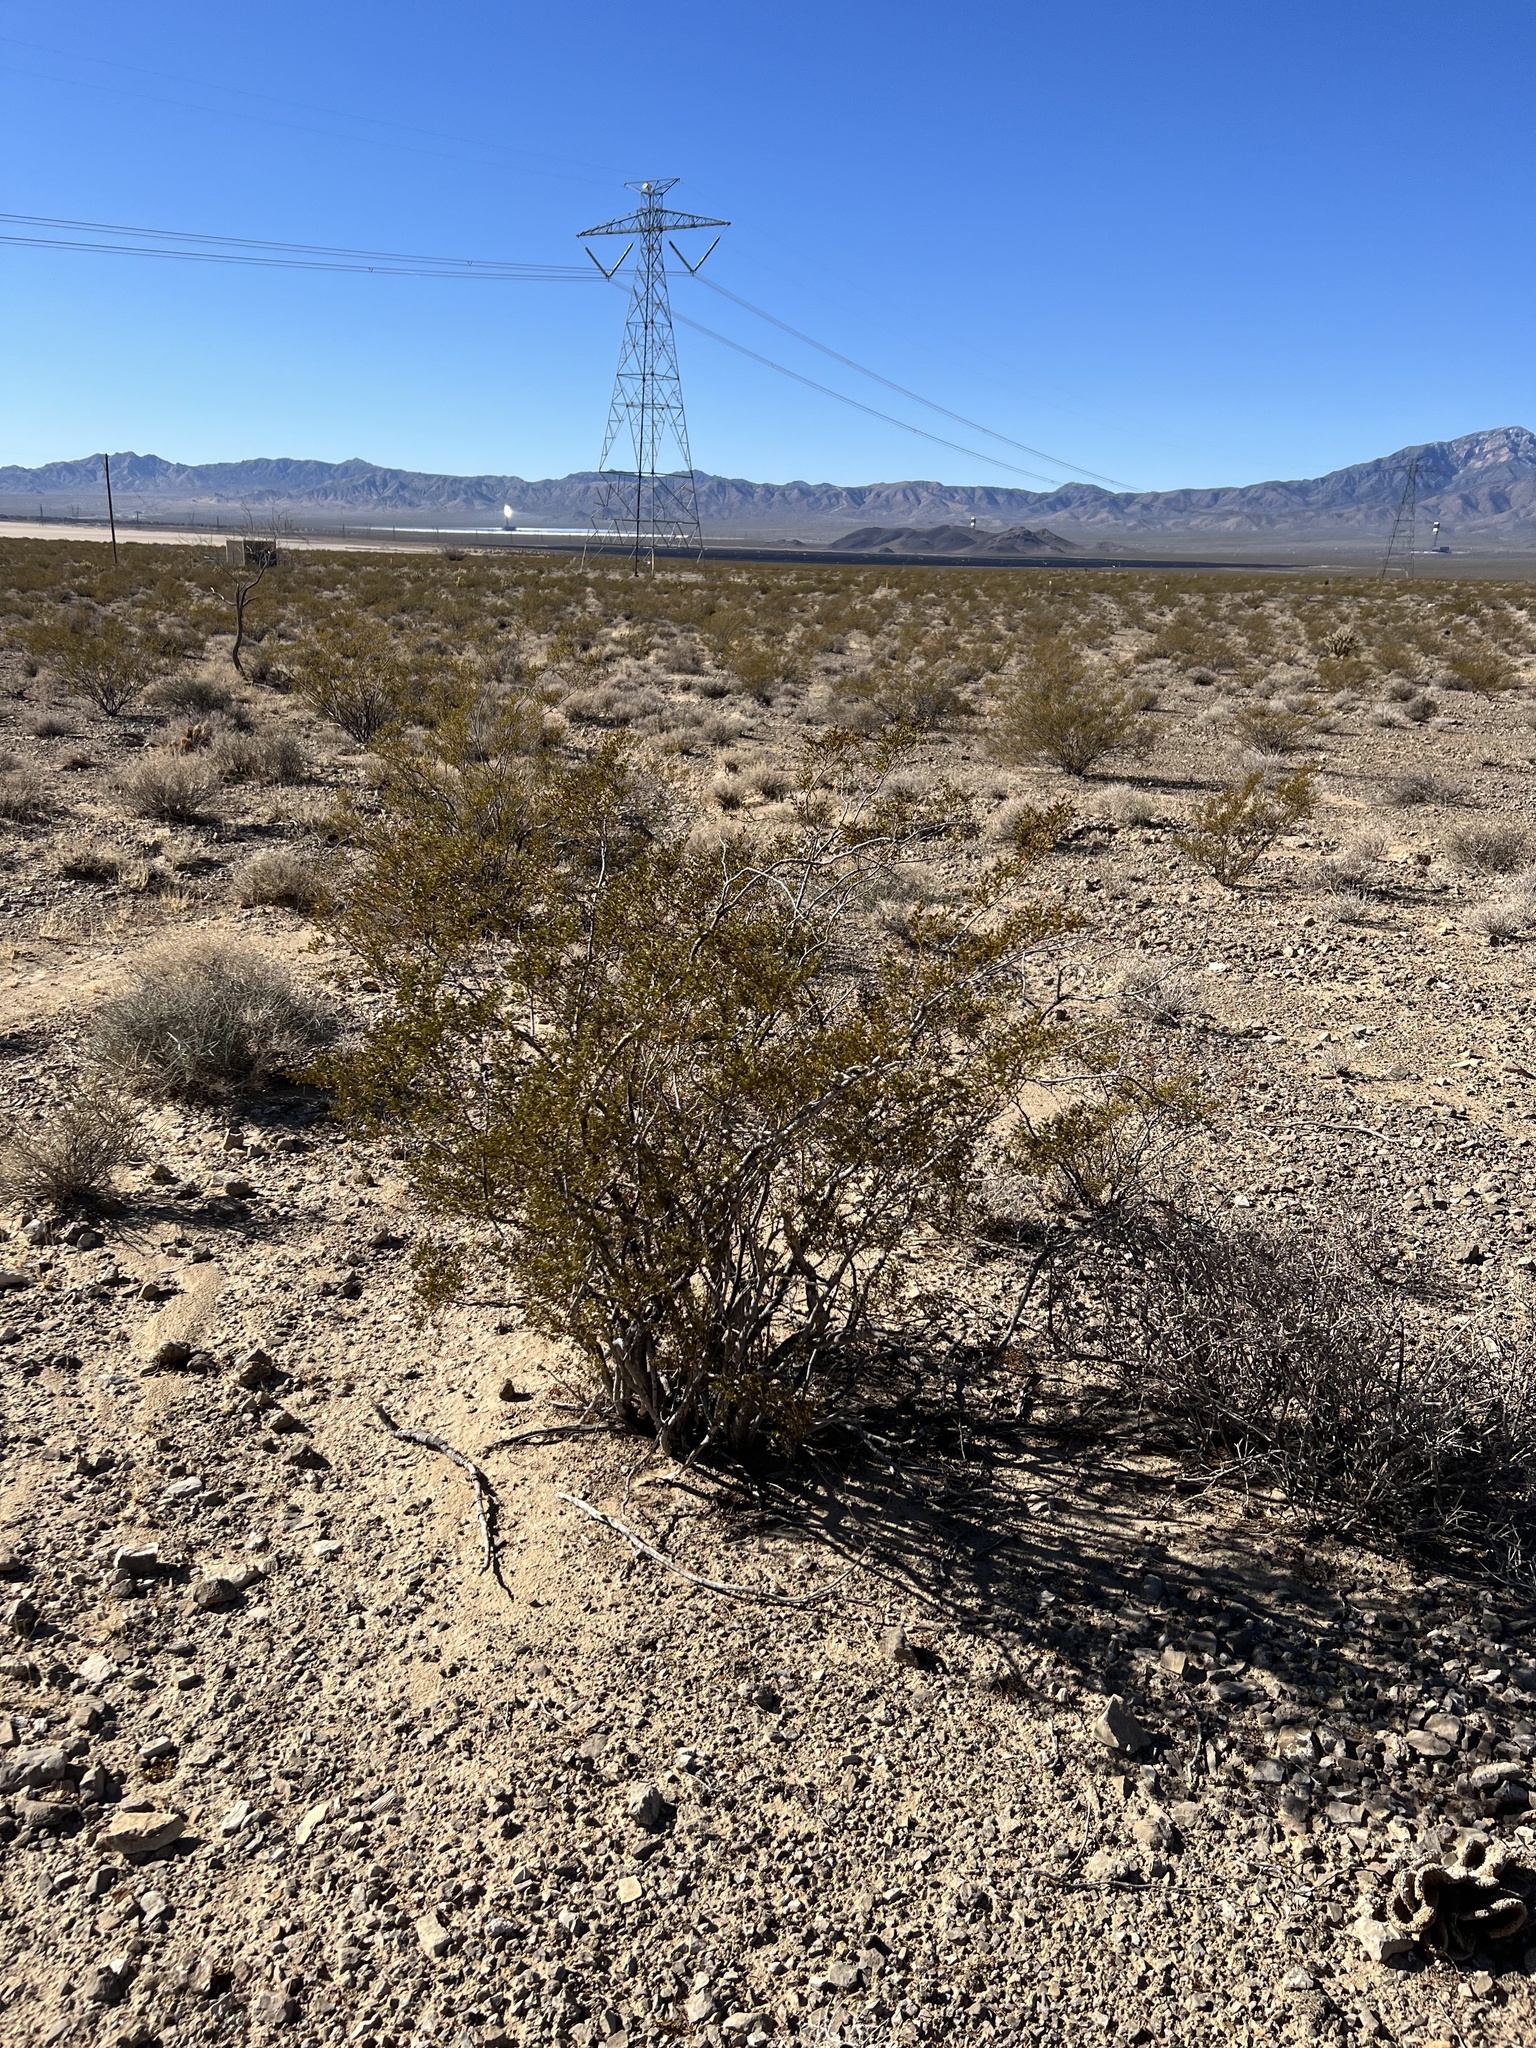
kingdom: Plantae
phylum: Tracheophyta
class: Magnoliopsida
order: Zygophyllales
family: Zygophyllaceae
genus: Larrea
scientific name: Larrea tridentata
